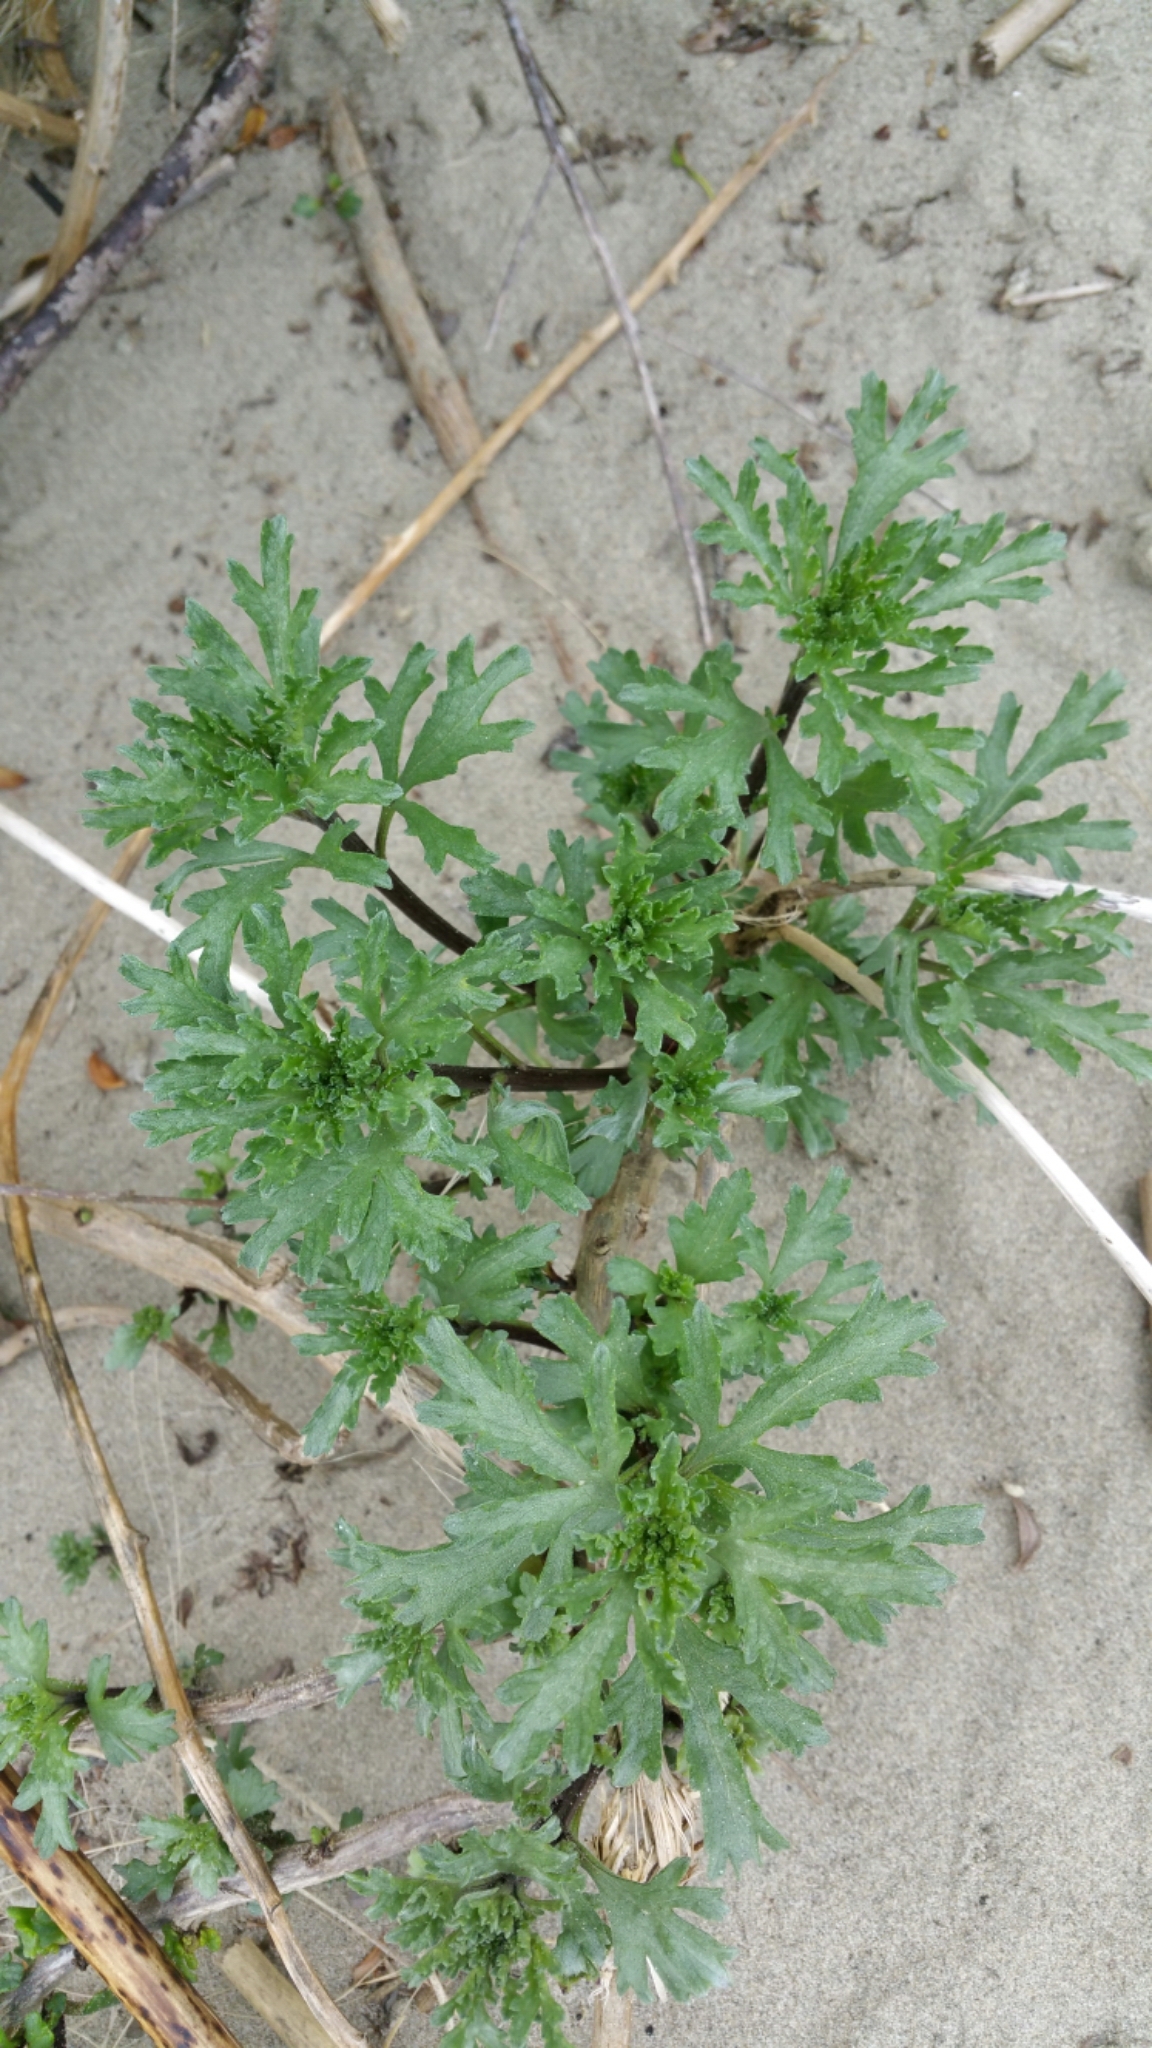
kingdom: Plantae
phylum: Tracheophyta
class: Magnoliopsida
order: Asterales
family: Asteraceae
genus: Ambrosia
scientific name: Ambrosia chamissonis
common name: Beachbur
